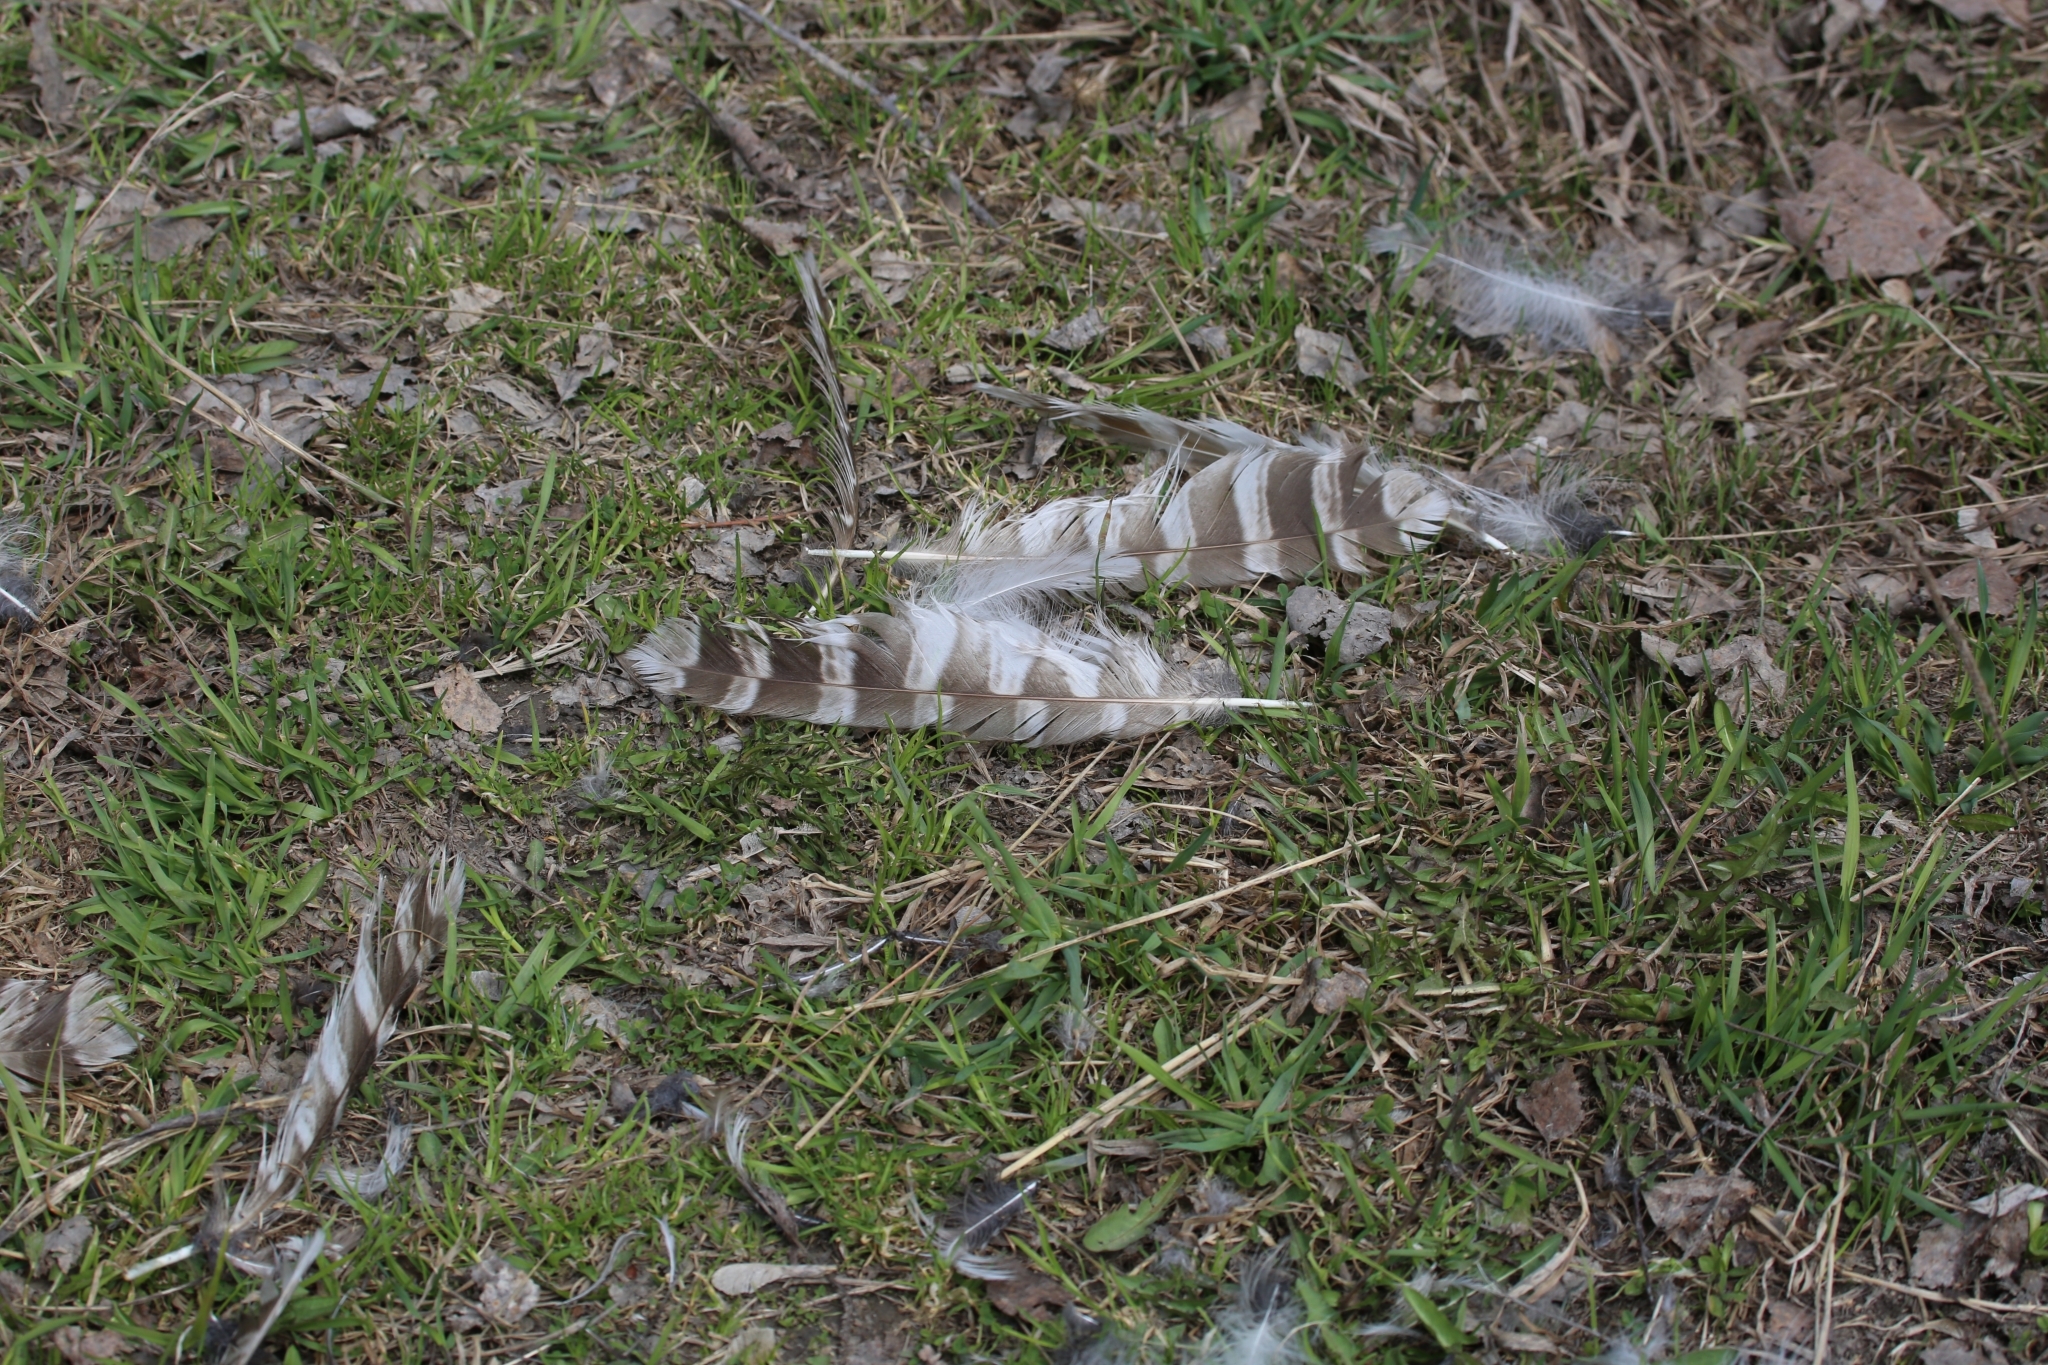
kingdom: Animalia
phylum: Chordata
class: Aves
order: Strigiformes
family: Strigidae
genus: Strix
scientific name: Strix uralensis
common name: Ural owl
